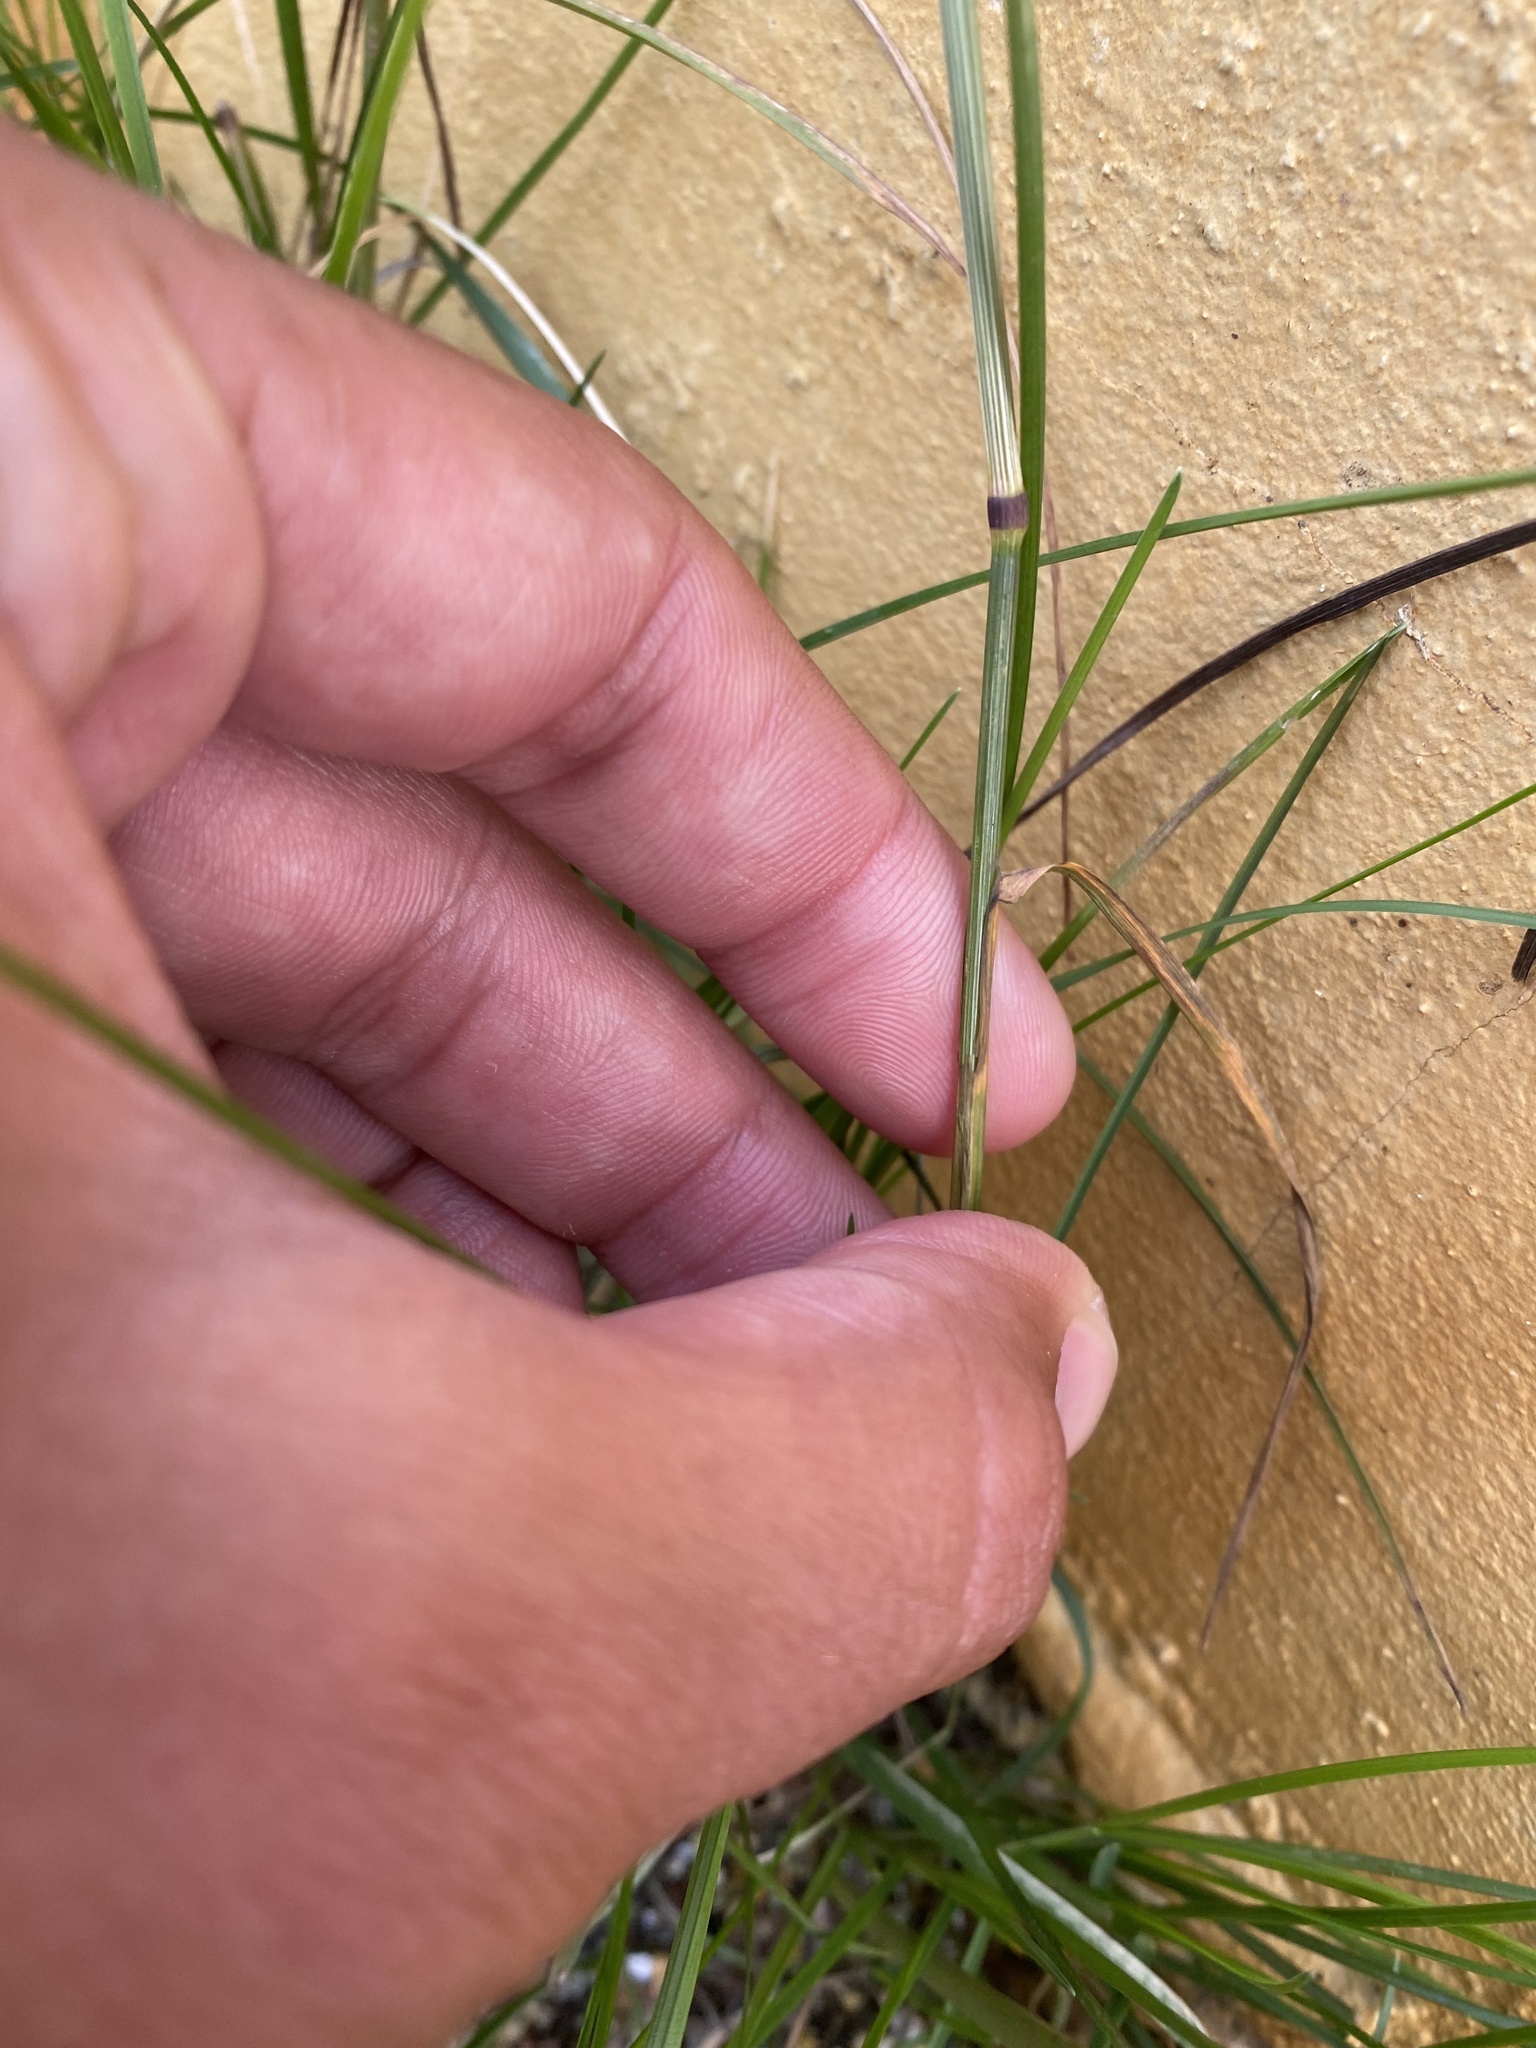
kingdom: Plantae
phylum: Tracheophyta
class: Liliopsida
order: Poales
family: Poaceae
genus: Puccinellia
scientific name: Puccinellia sibirica
